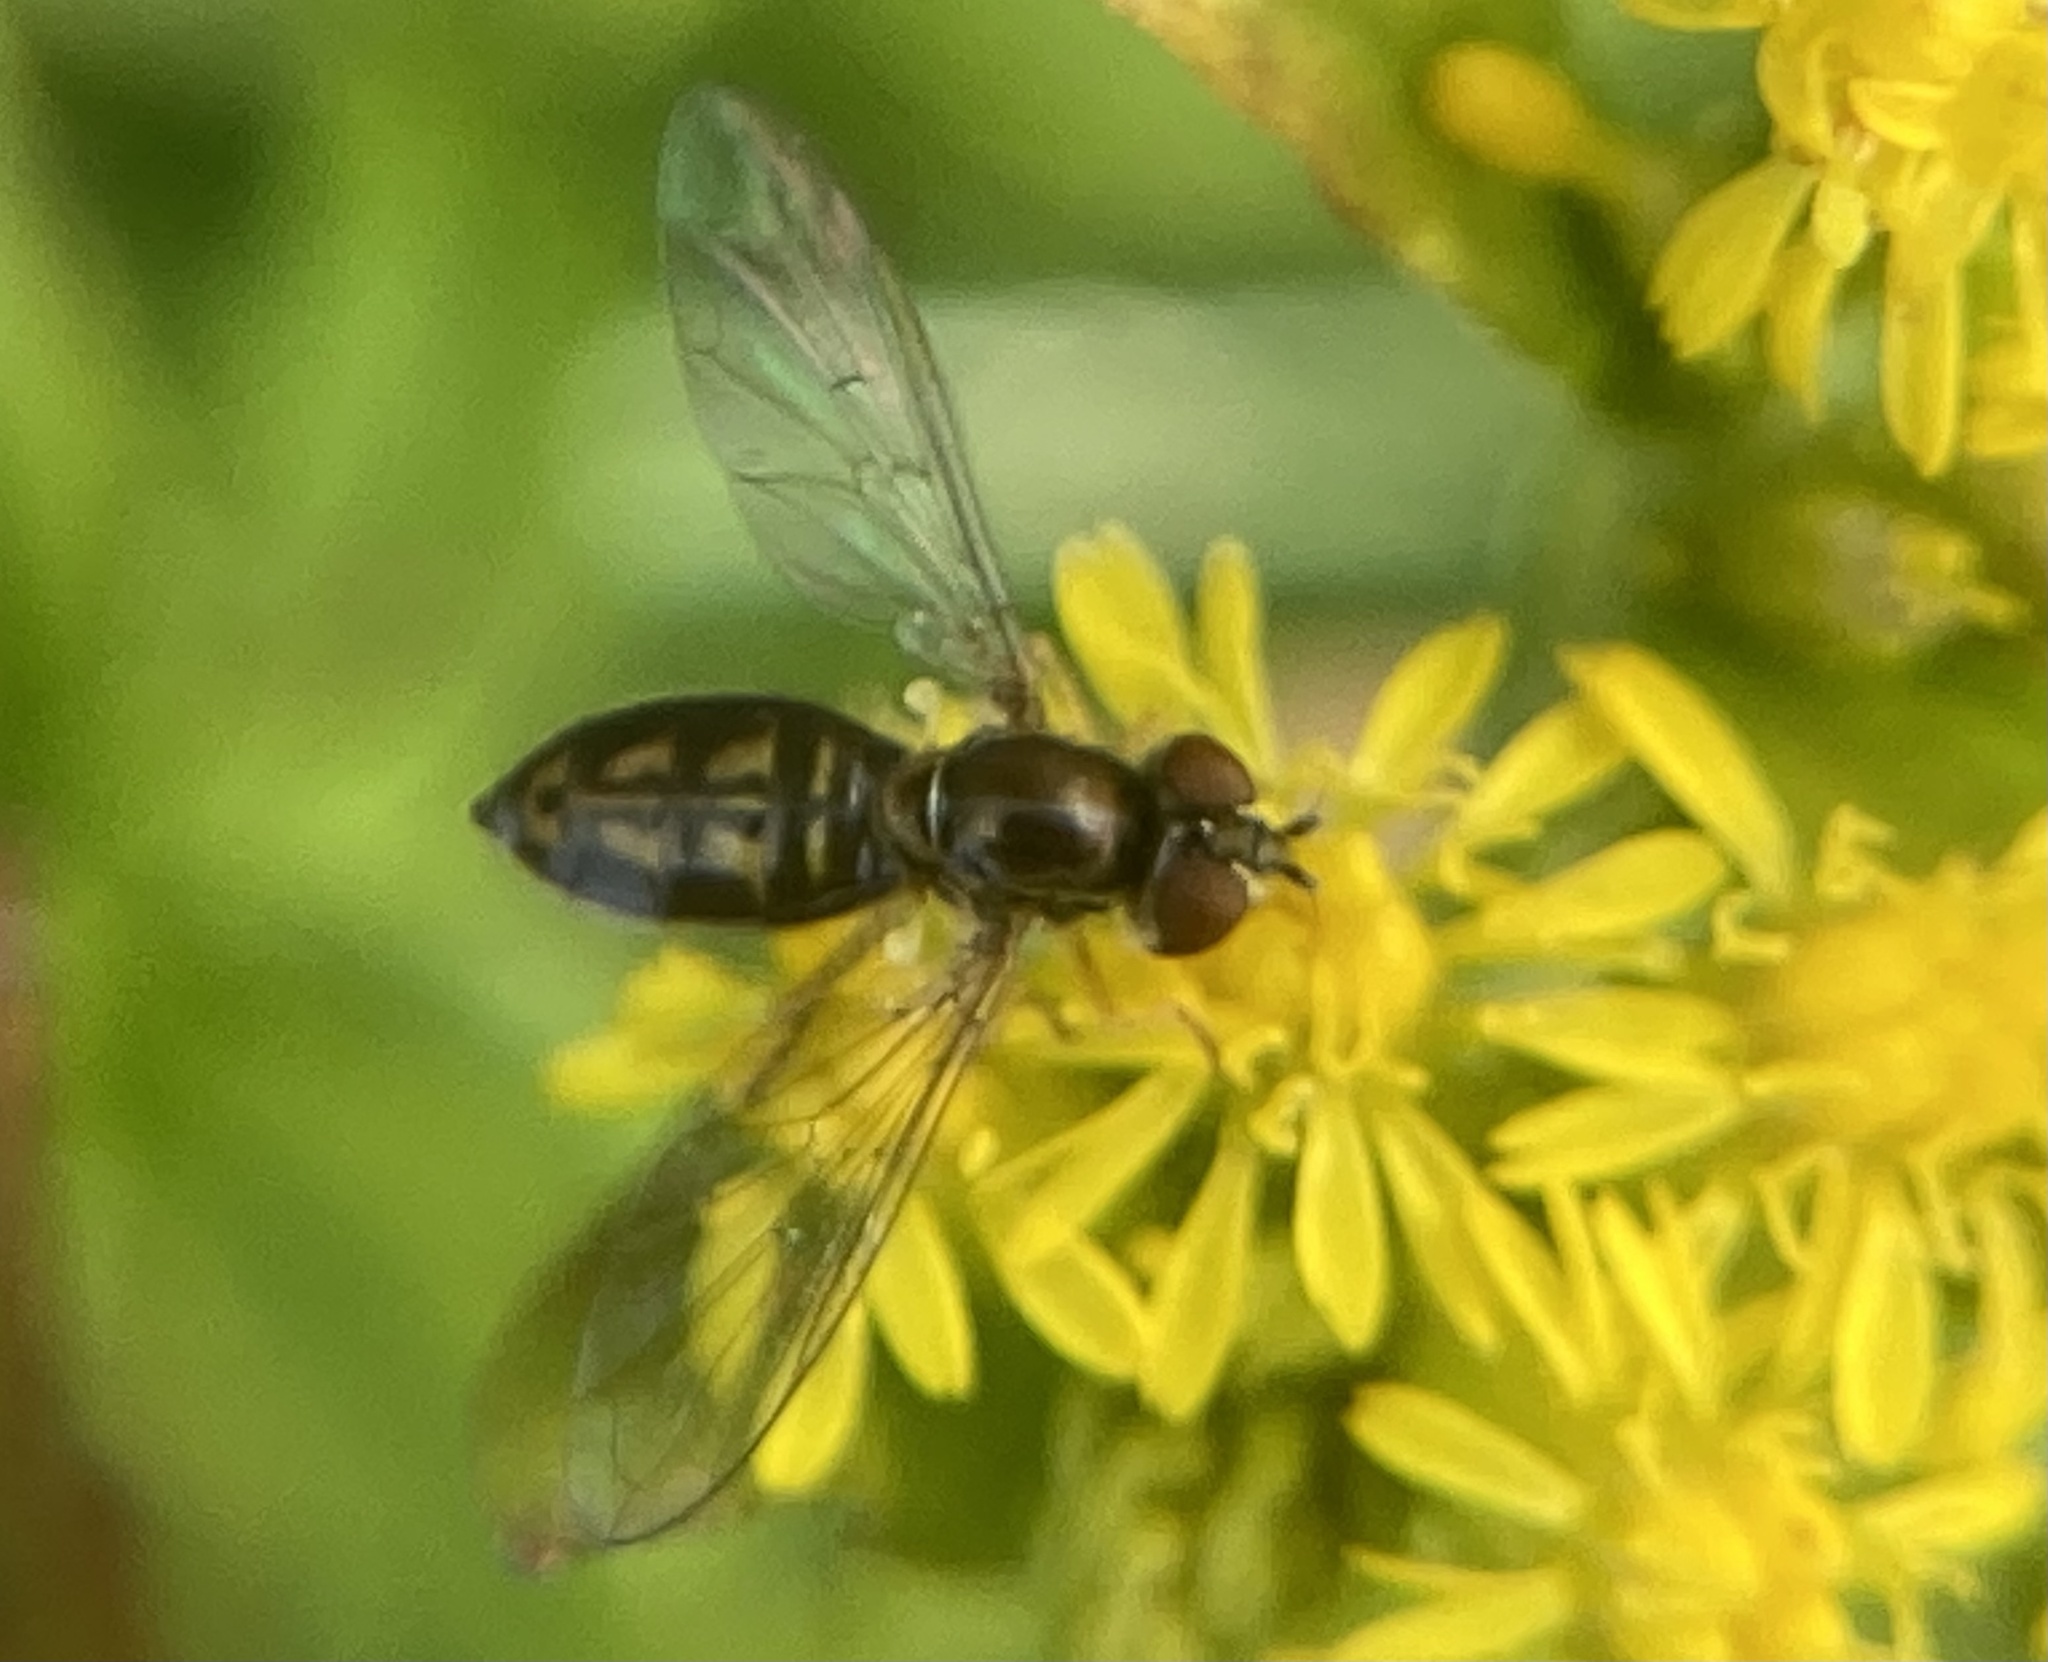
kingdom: Animalia
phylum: Arthropoda
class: Insecta
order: Diptera
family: Syrphidae
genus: Toxomerus
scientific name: Toxomerus marginatus
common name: Syrphid fly
